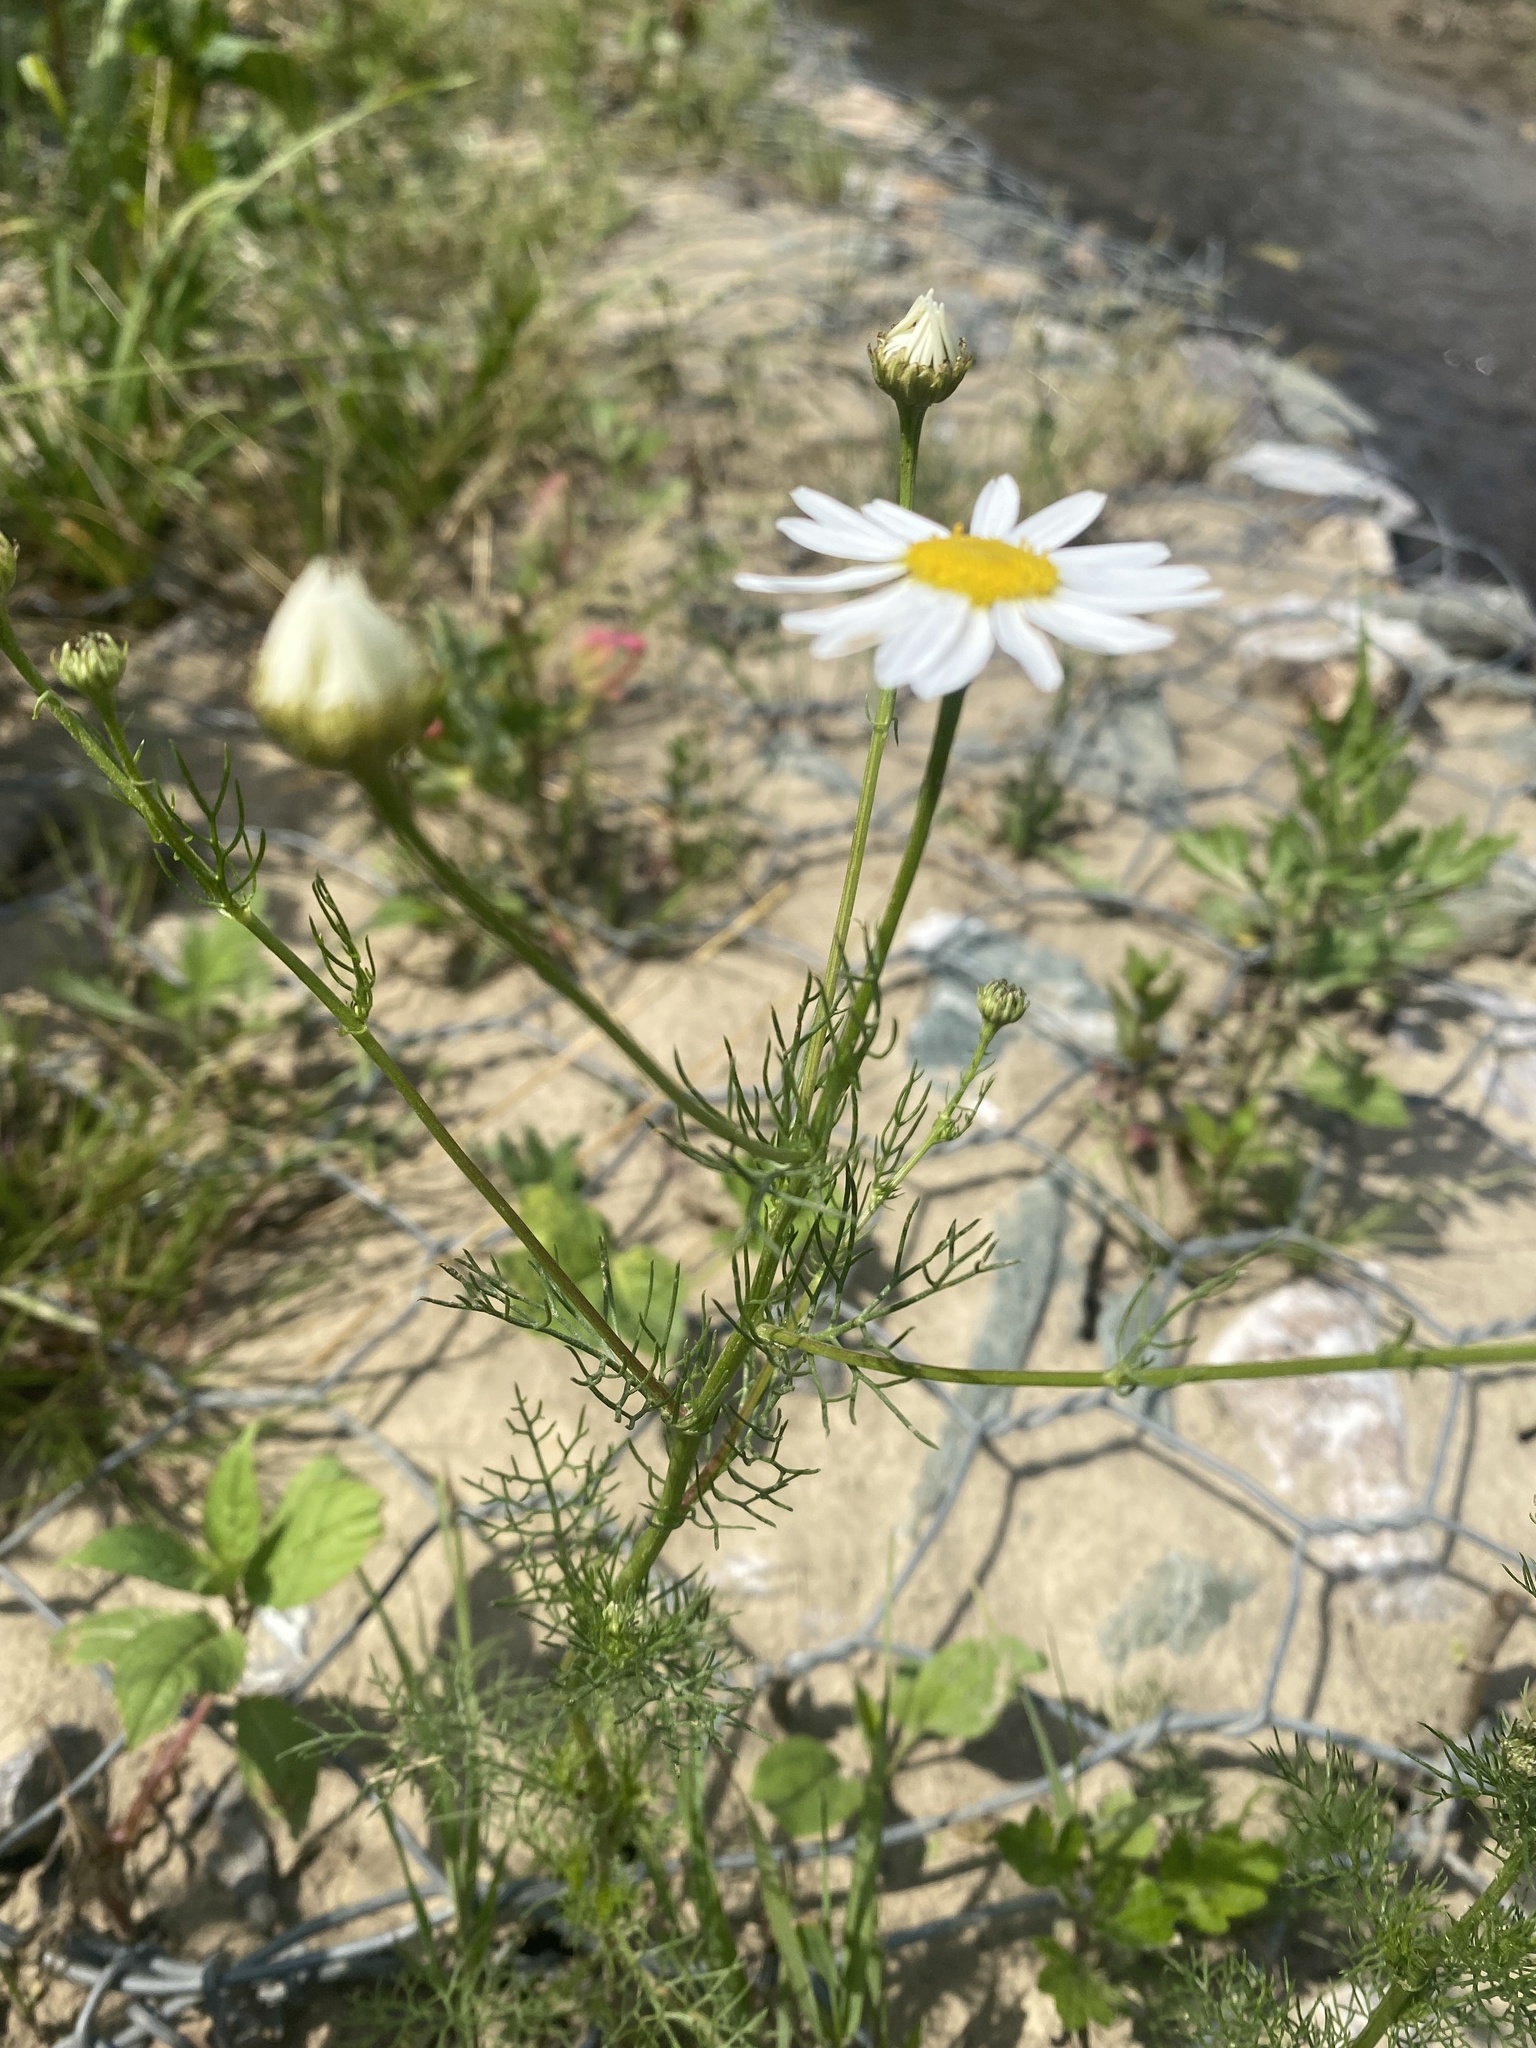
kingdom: Plantae
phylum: Tracheophyta
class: Magnoliopsida
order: Asterales
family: Asteraceae
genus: Tripleurospermum
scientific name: Tripleurospermum inodorum
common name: Scentless mayweed
